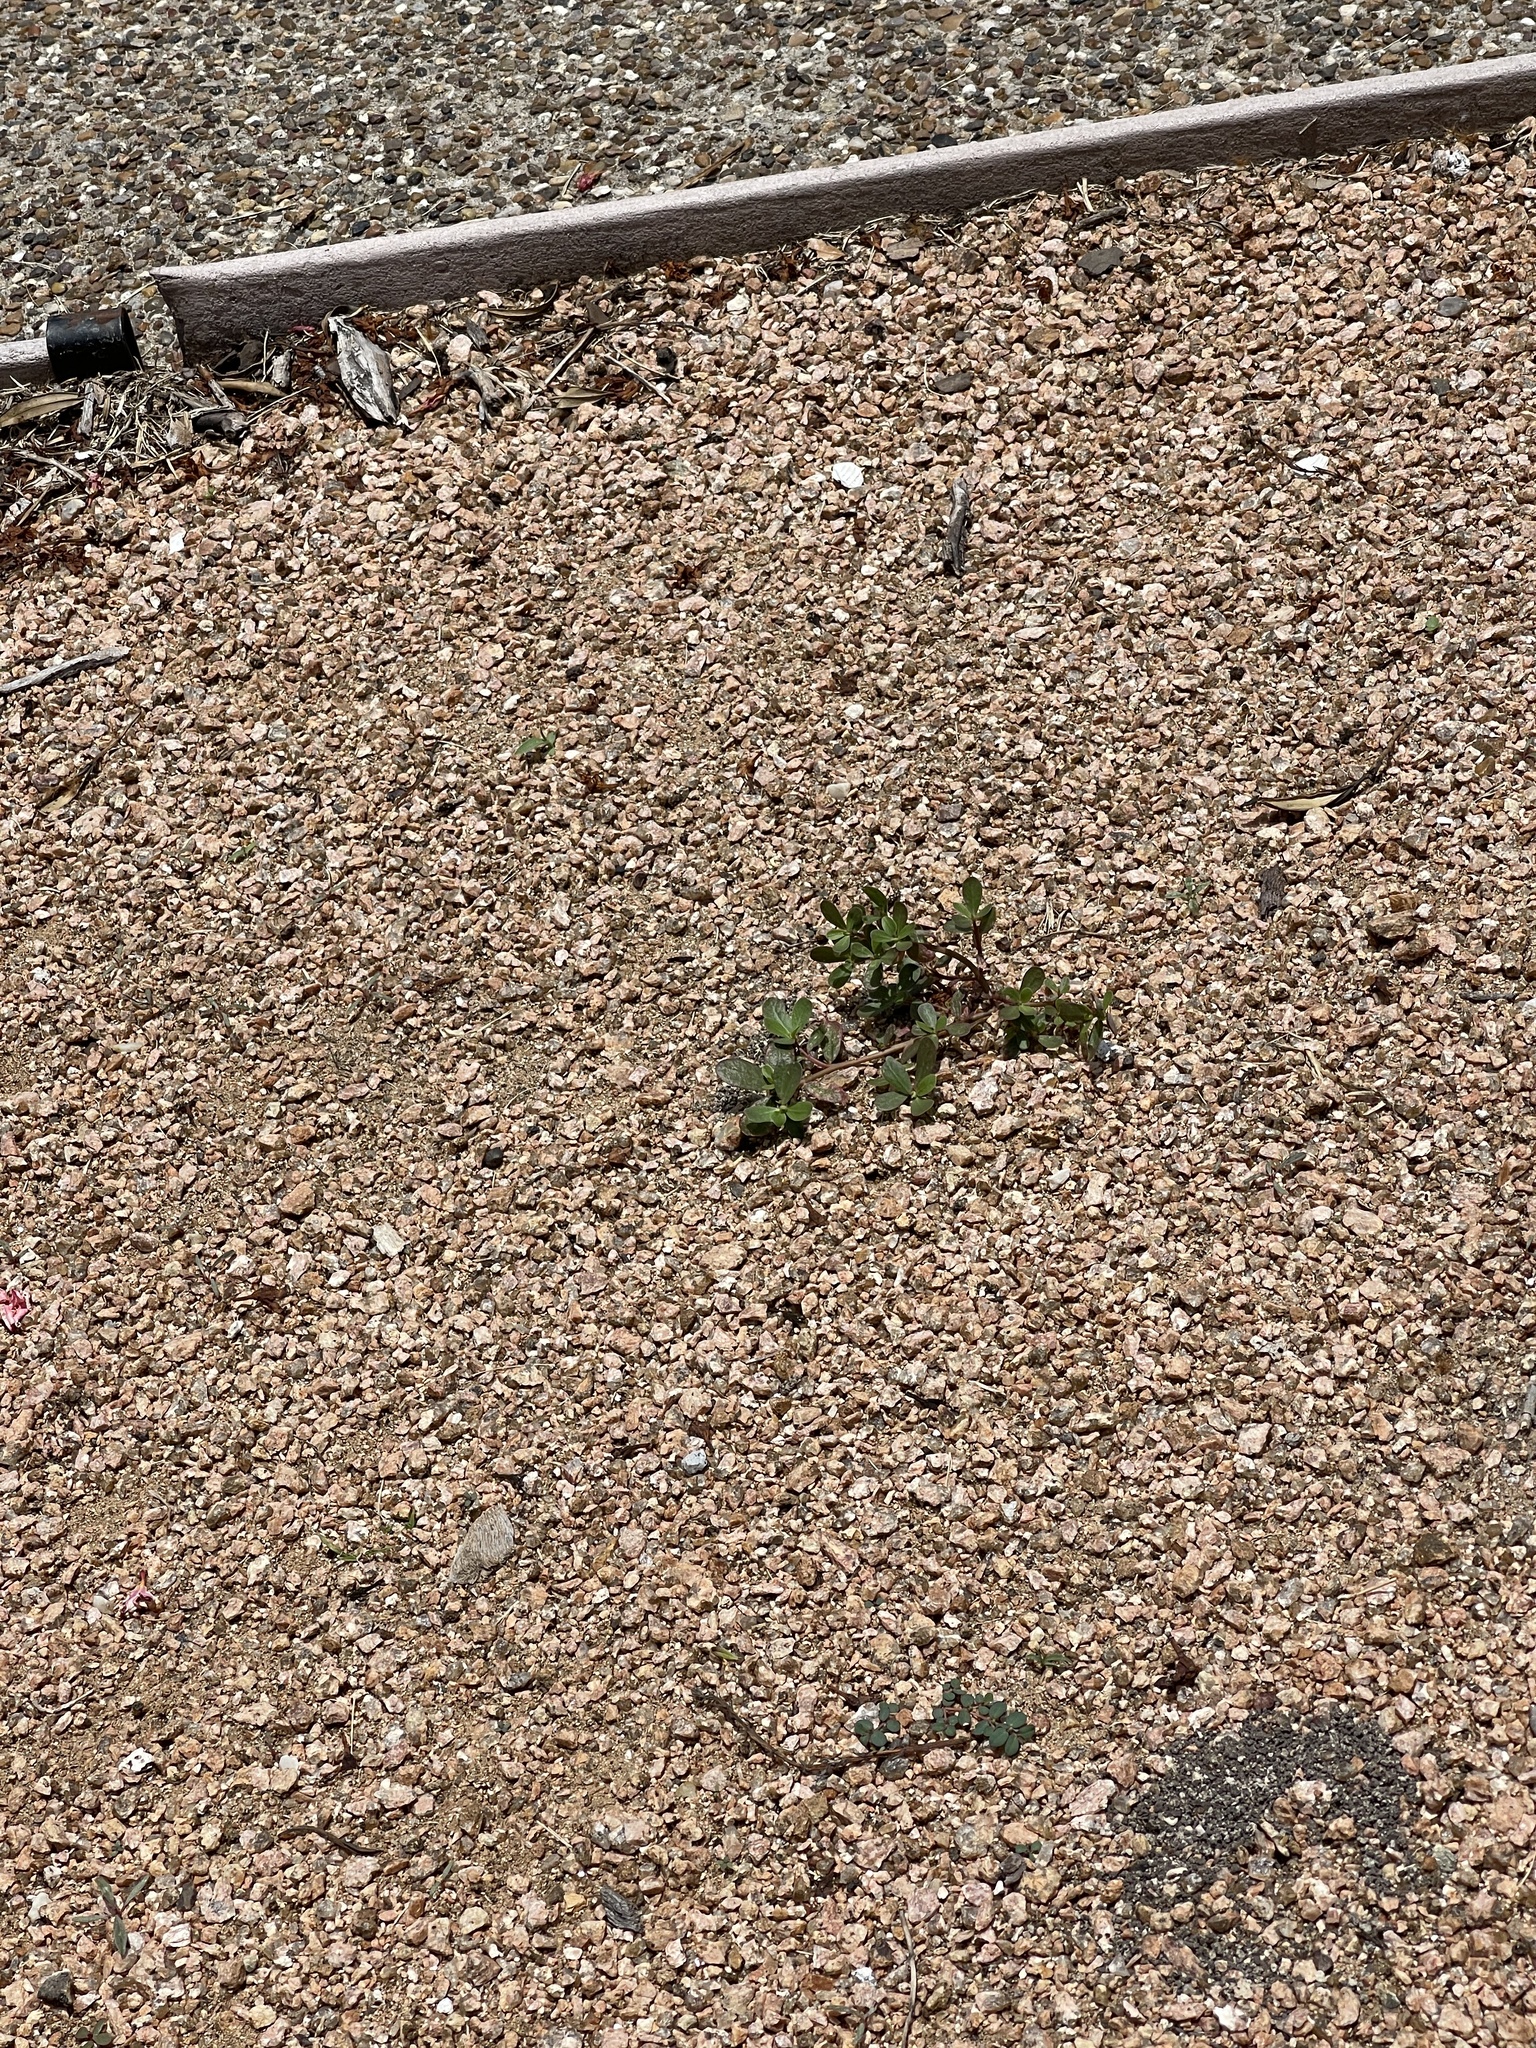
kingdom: Plantae
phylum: Tracheophyta
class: Magnoliopsida
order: Caryophyllales
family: Portulacaceae
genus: Portulaca
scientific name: Portulaca oleracea
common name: Common purslane
